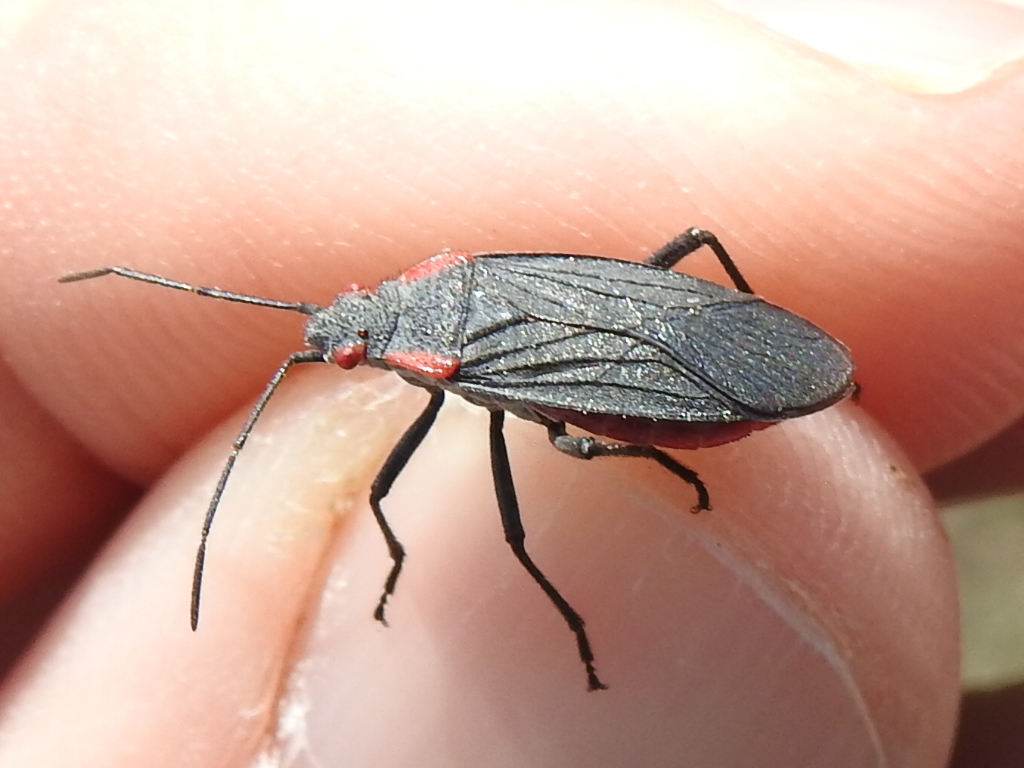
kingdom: Animalia
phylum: Arthropoda
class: Insecta
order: Hemiptera
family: Rhopalidae
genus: Jadera
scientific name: Jadera haematoloma
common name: Red-shouldered bug
